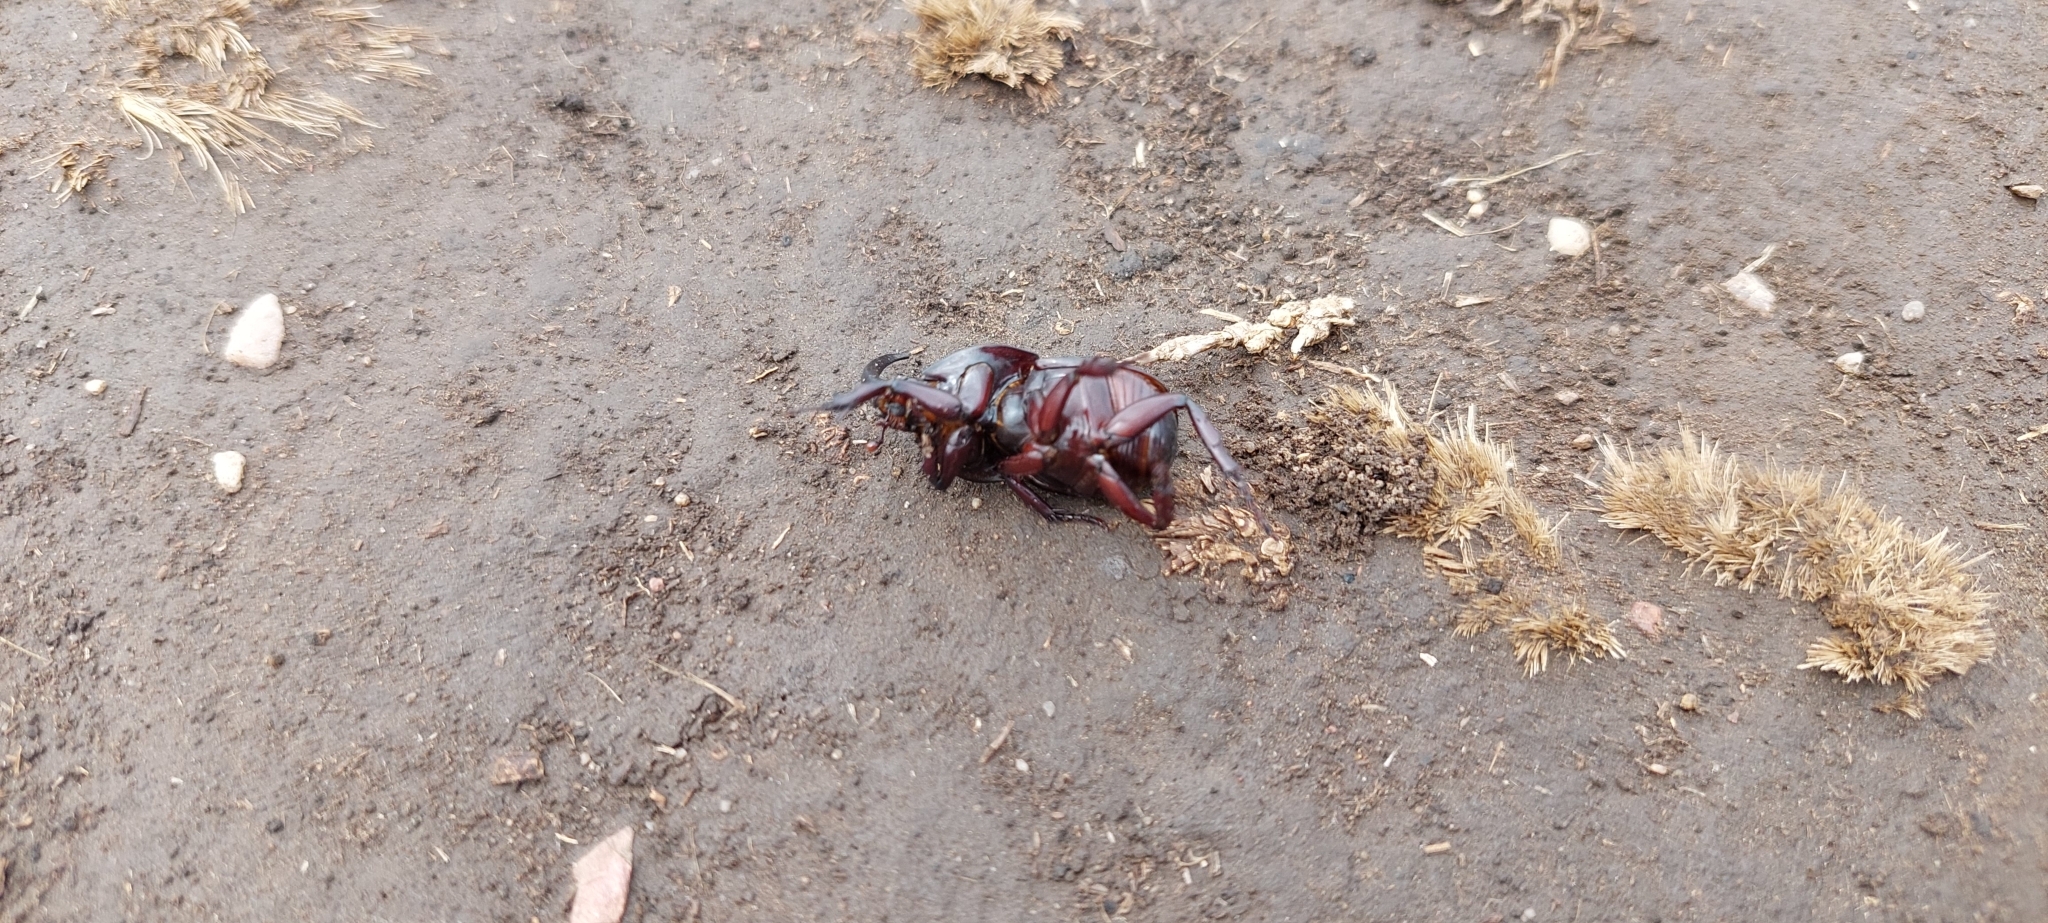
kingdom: Animalia
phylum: Arthropoda
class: Insecta
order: Coleoptera
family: Scarabaeidae
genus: Diloboderus
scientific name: Diloboderus abderus
